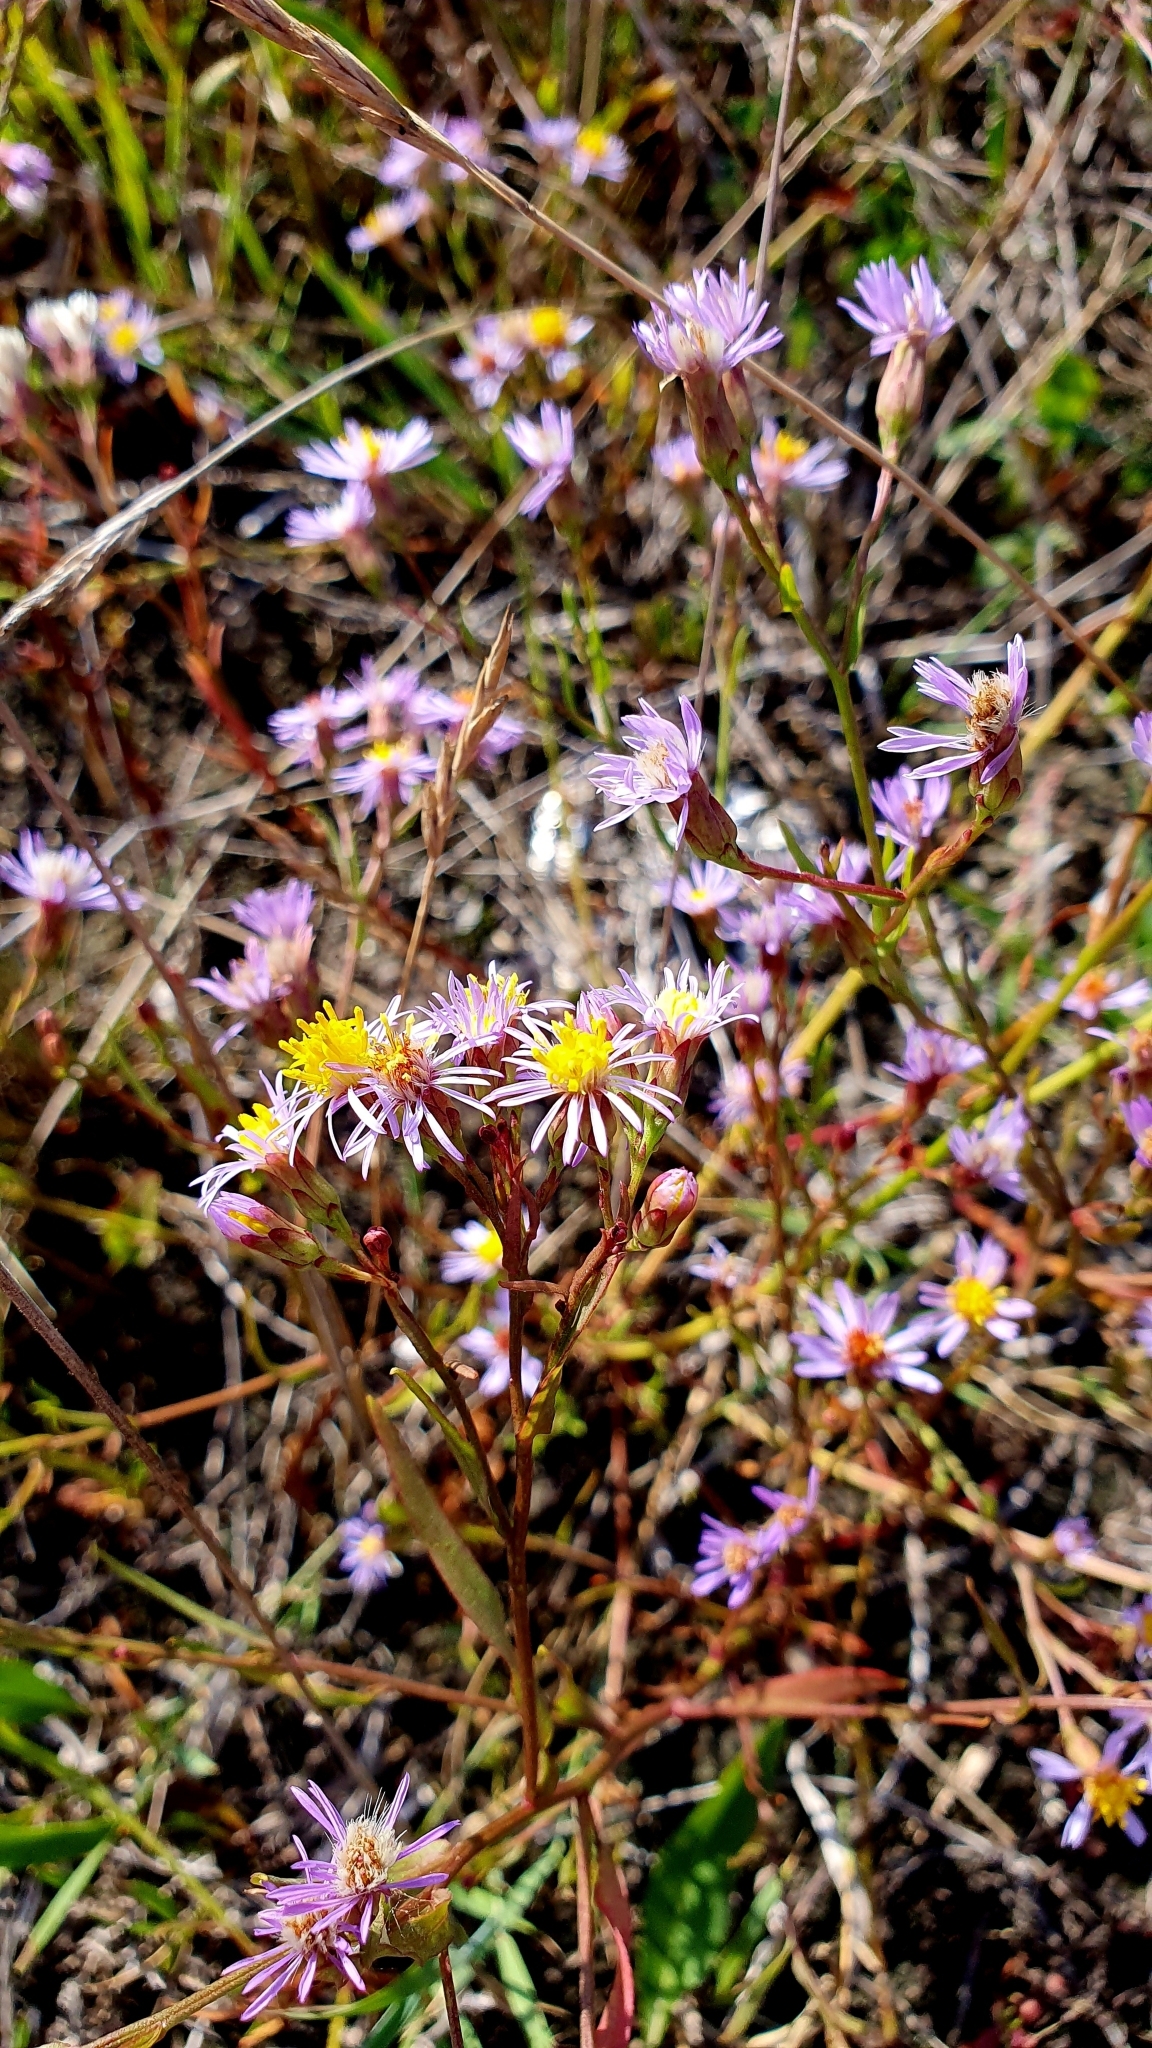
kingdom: Plantae
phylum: Tracheophyta
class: Magnoliopsida
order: Asterales
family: Asteraceae
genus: Tripolium
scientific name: Tripolium pannonicum
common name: Sea aster
